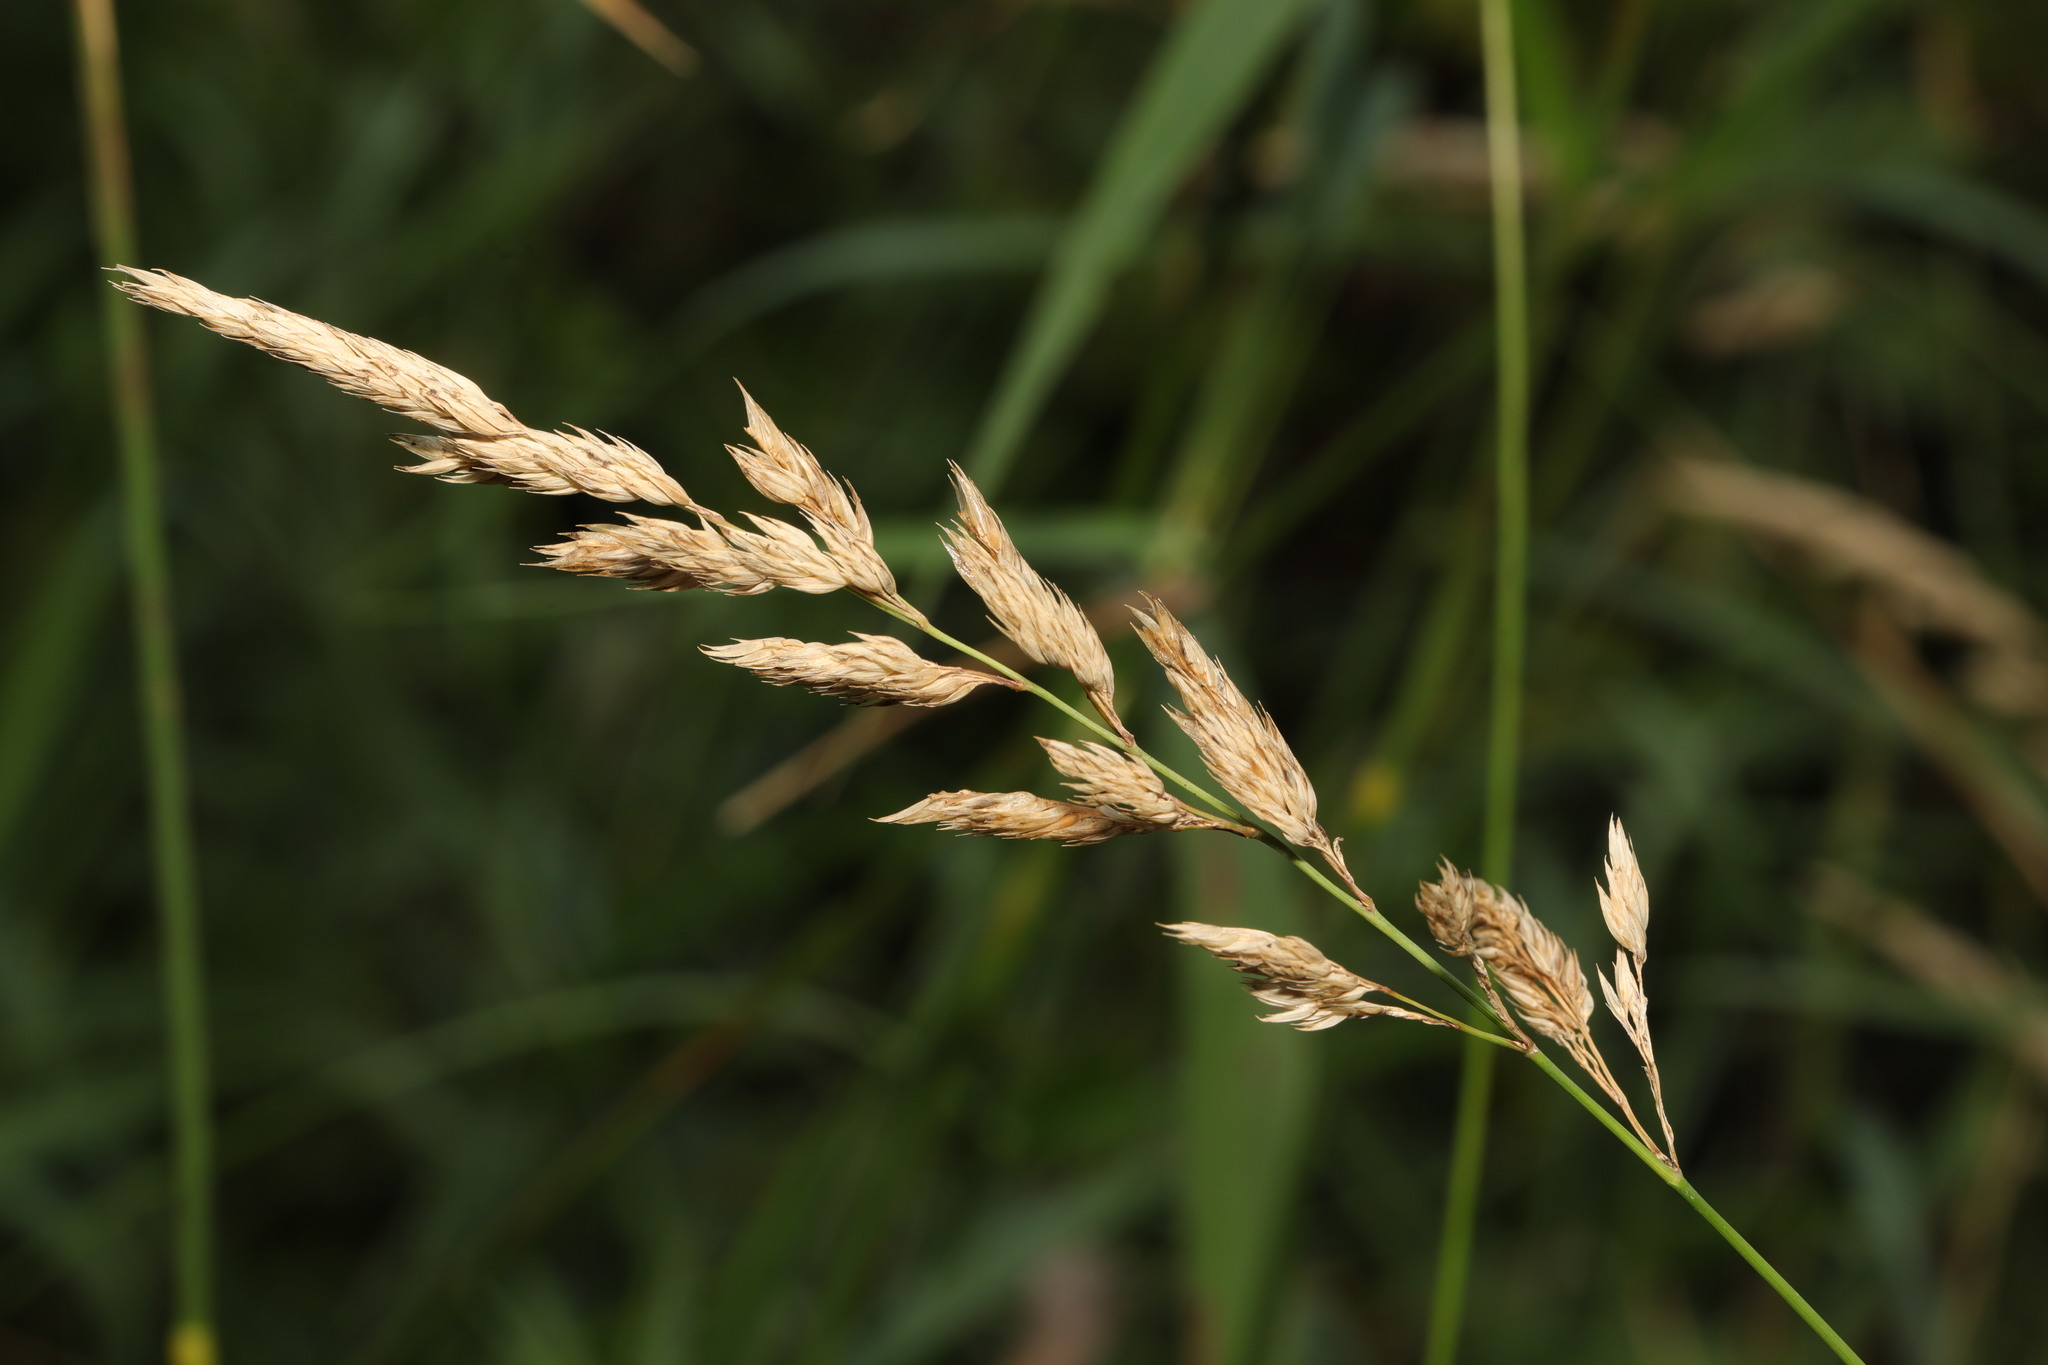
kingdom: Plantae
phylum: Tracheophyta
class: Liliopsida
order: Poales
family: Poaceae
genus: Phalaris
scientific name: Phalaris arundinacea
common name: Reed canary-grass
